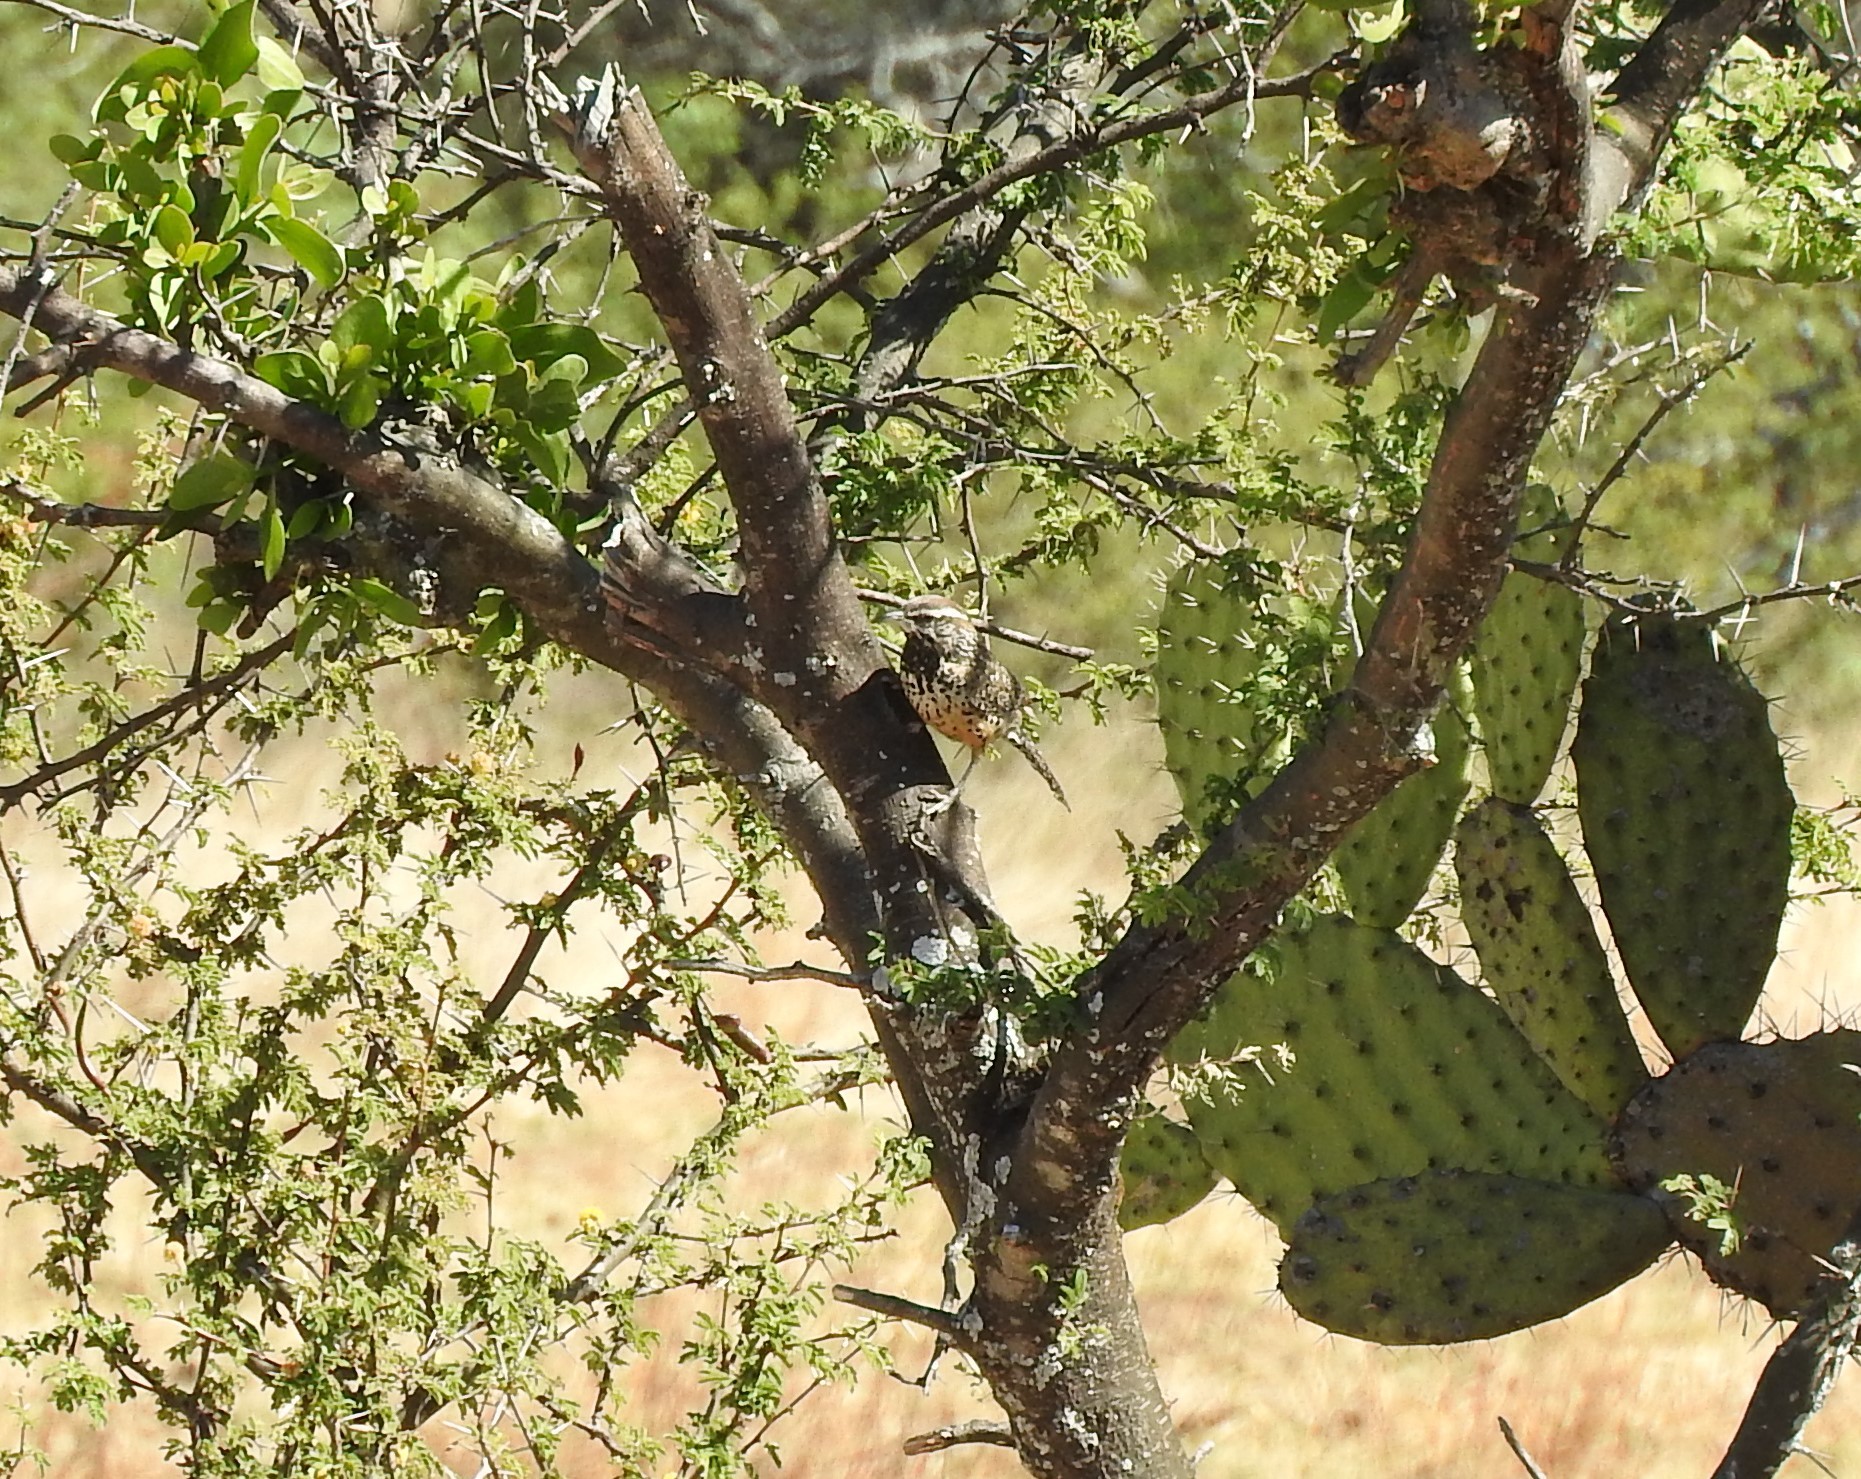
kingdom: Animalia
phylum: Chordata
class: Aves
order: Passeriformes
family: Troglodytidae
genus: Campylorhynchus
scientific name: Campylorhynchus brunneicapillus
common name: Cactus wren
